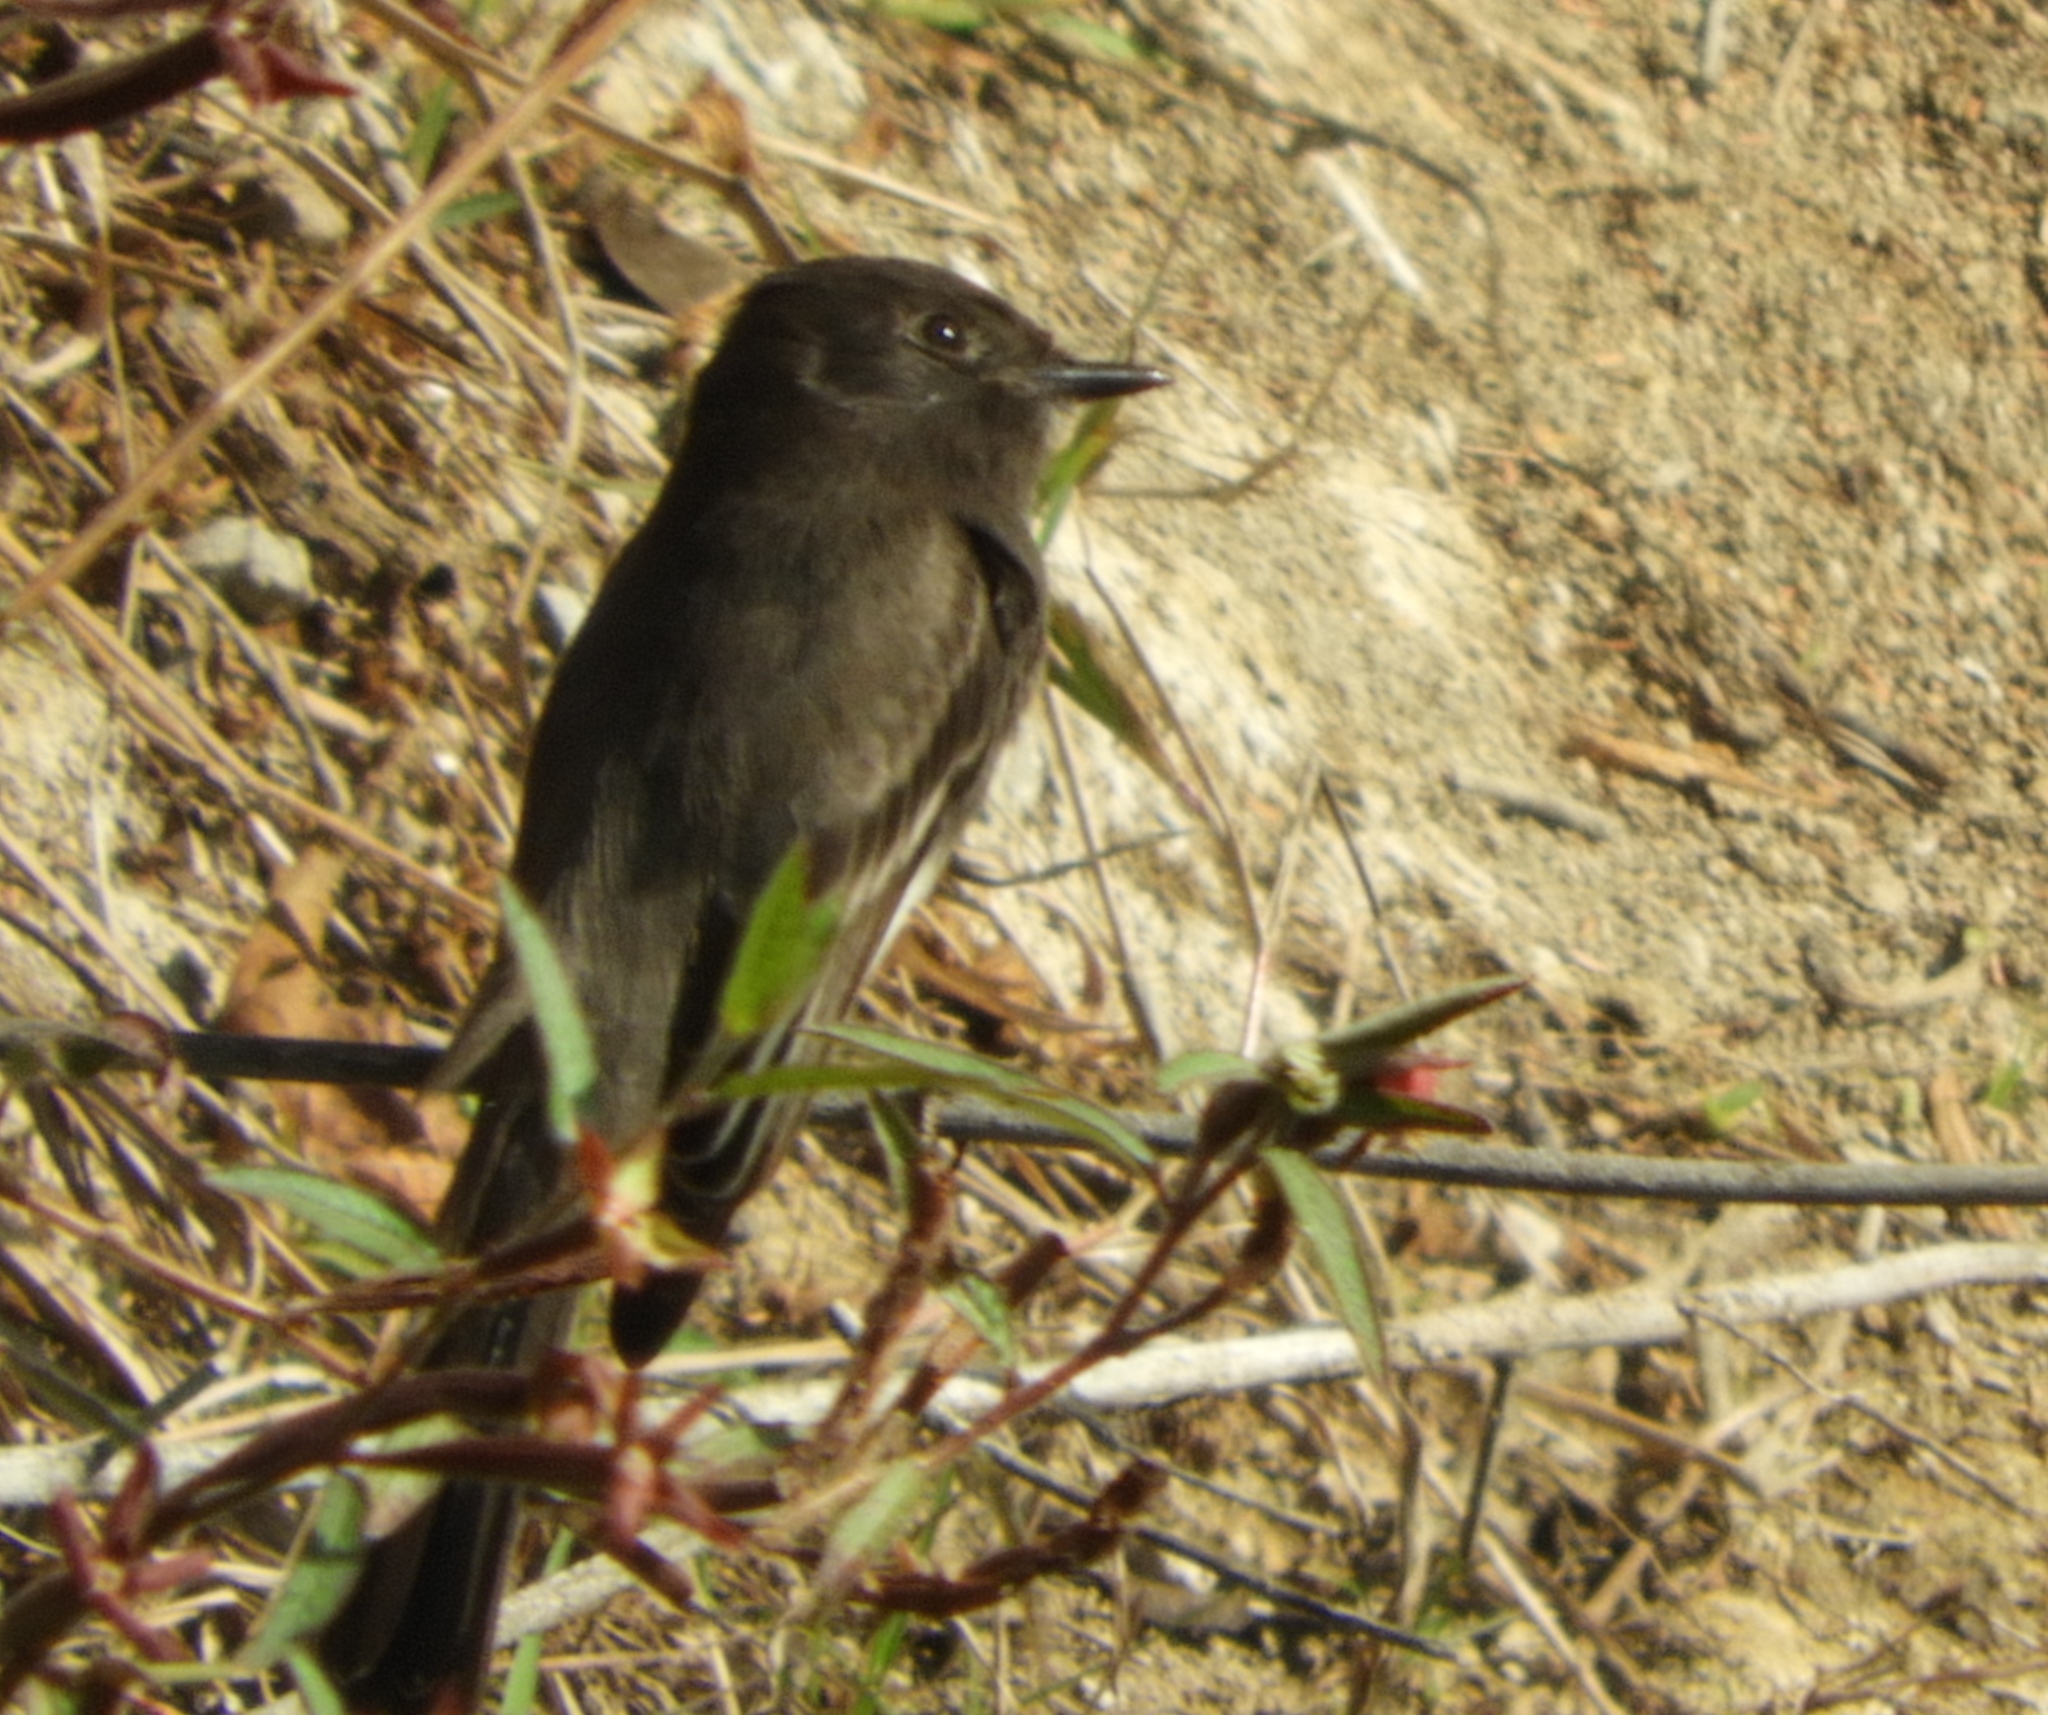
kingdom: Animalia
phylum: Chordata
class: Aves
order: Passeriformes
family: Tyrannidae
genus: Sayornis
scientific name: Sayornis nigricans
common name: Black phoebe
